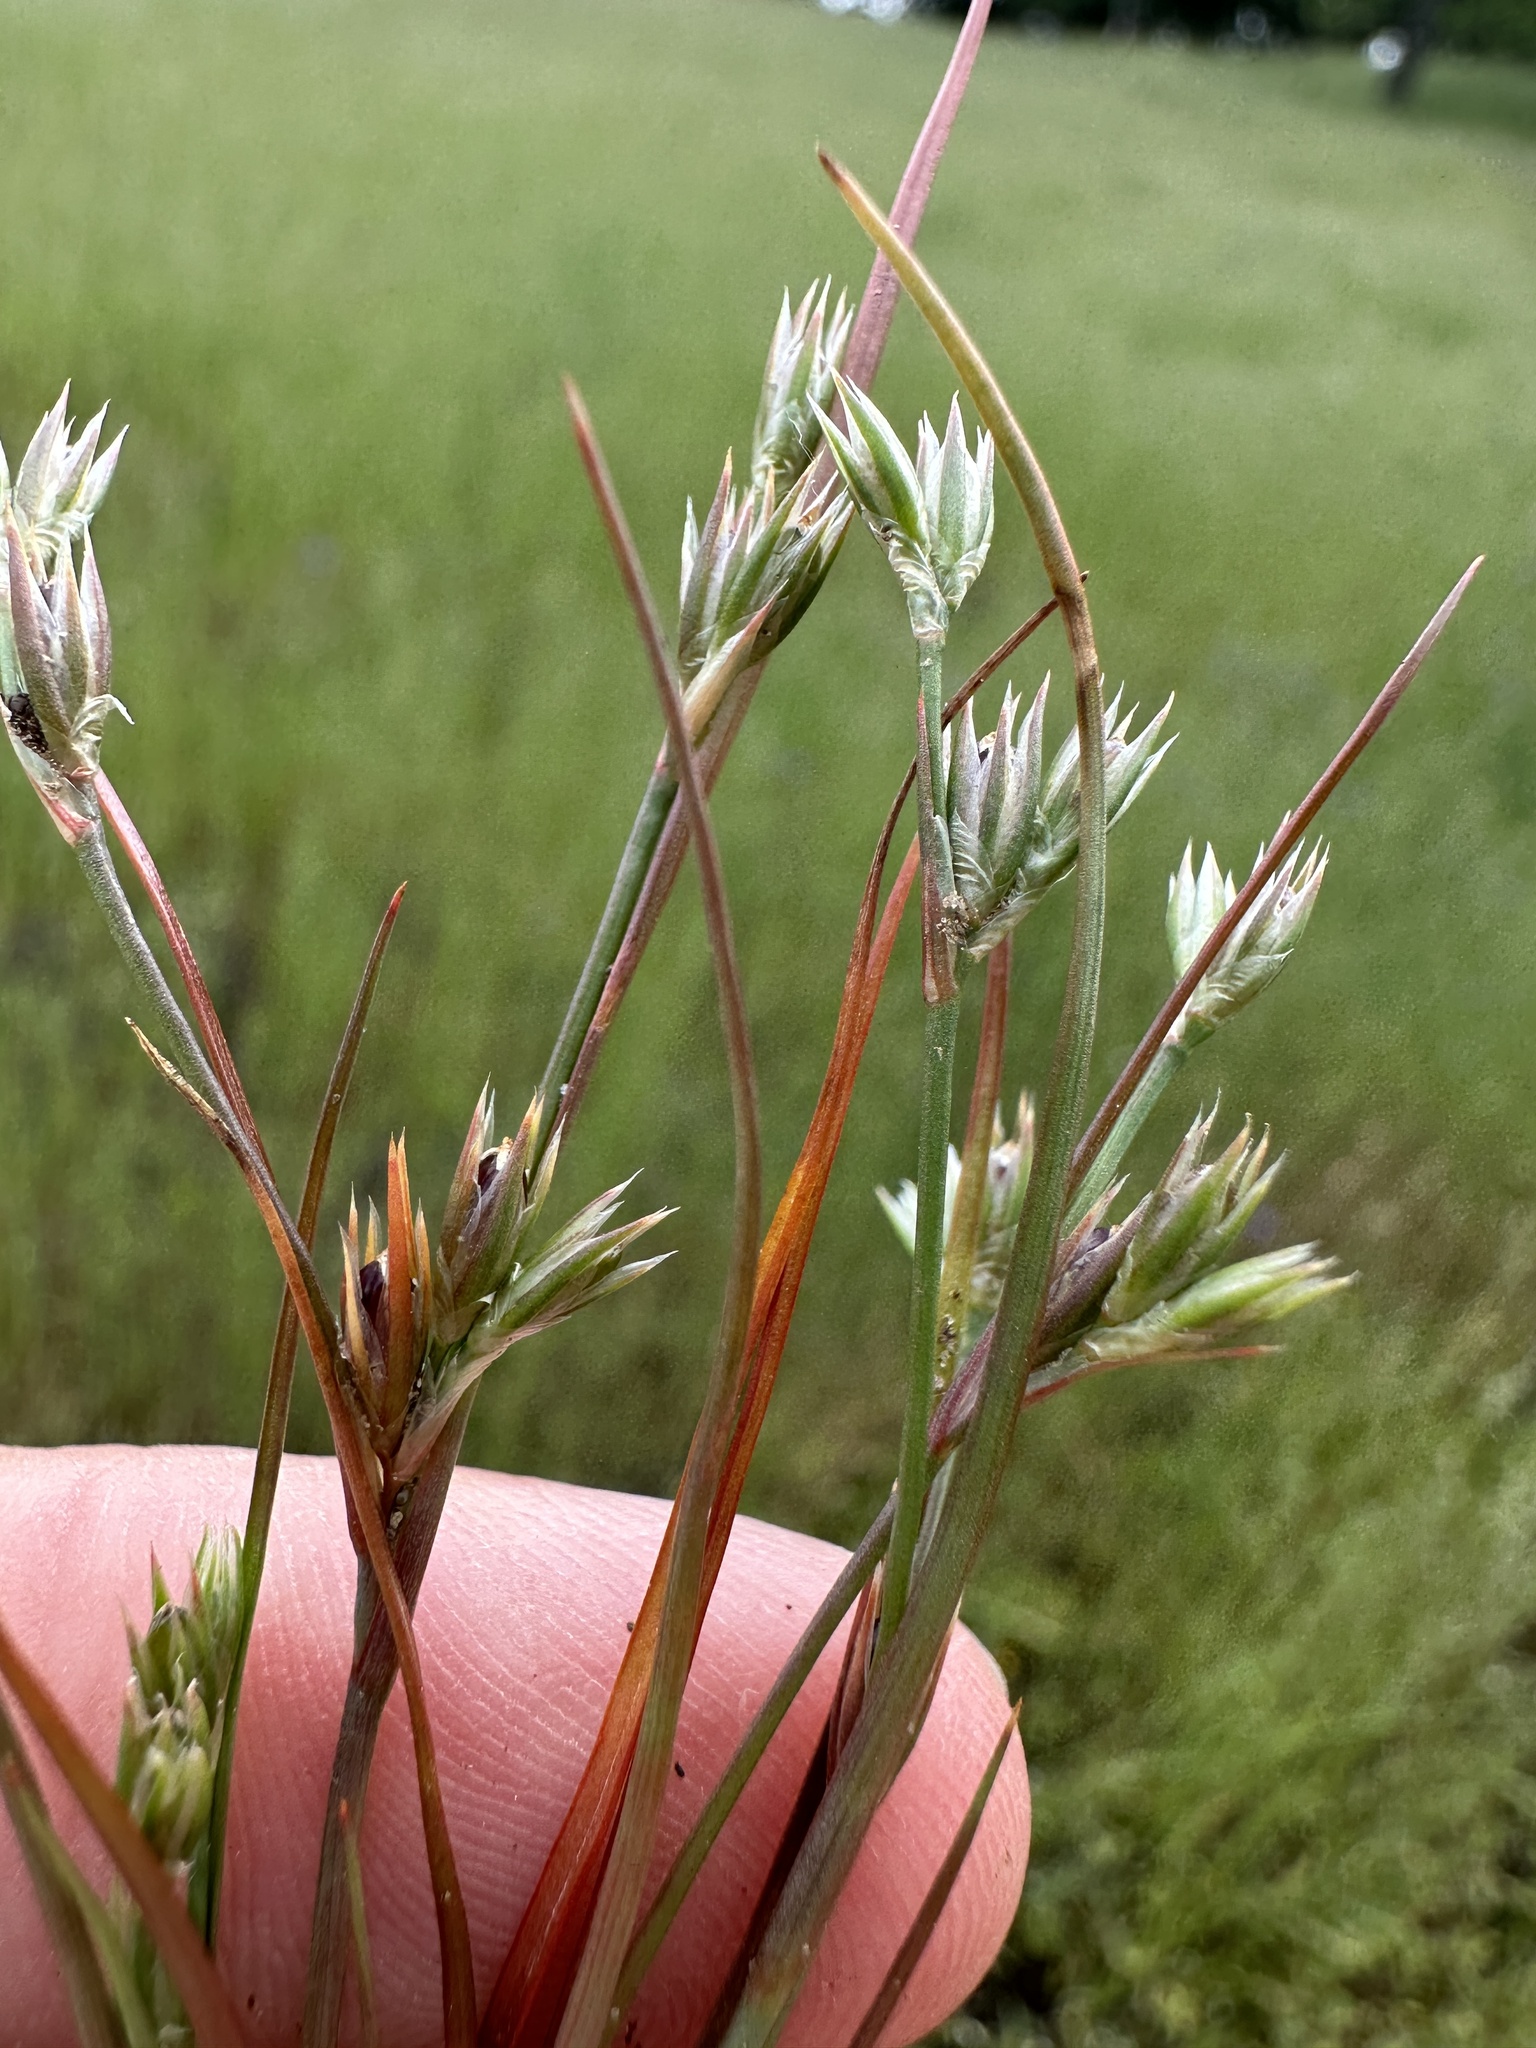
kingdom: Plantae
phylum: Tracheophyta
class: Liliopsida
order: Poales
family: Juncaceae
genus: Juncus
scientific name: Juncus bufonius
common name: Toad rush
